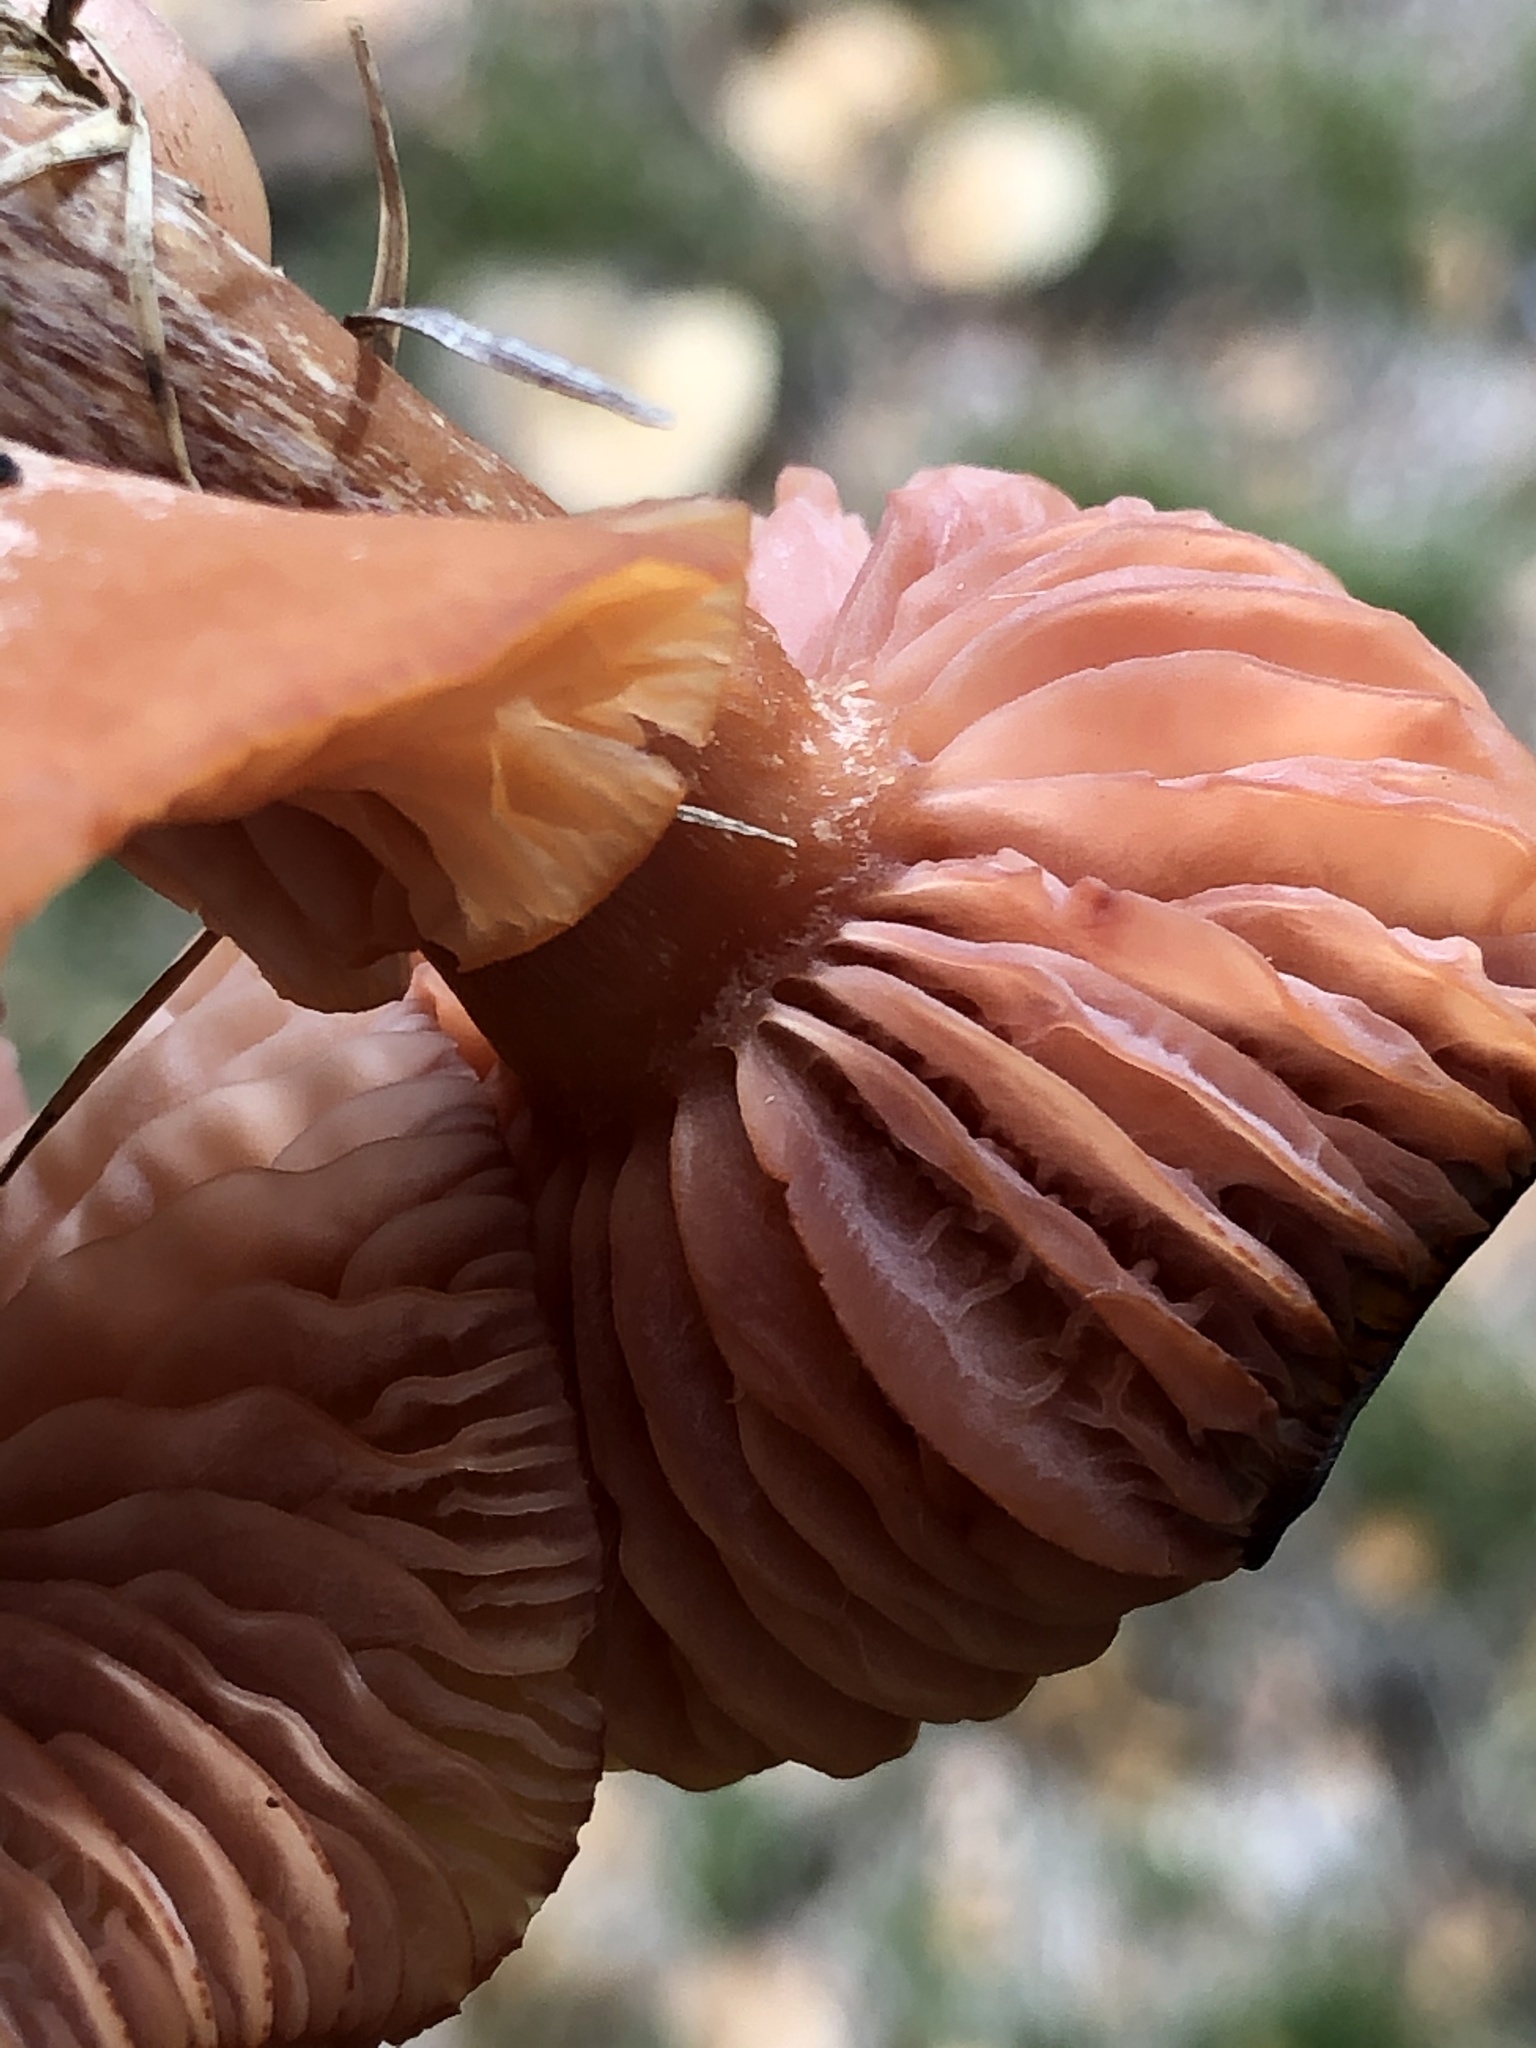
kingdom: Fungi
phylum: Basidiomycota
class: Agaricomycetes
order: Agaricales
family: Hydnangiaceae
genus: Laccaria
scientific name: Laccaria laccata
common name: Deceiver
